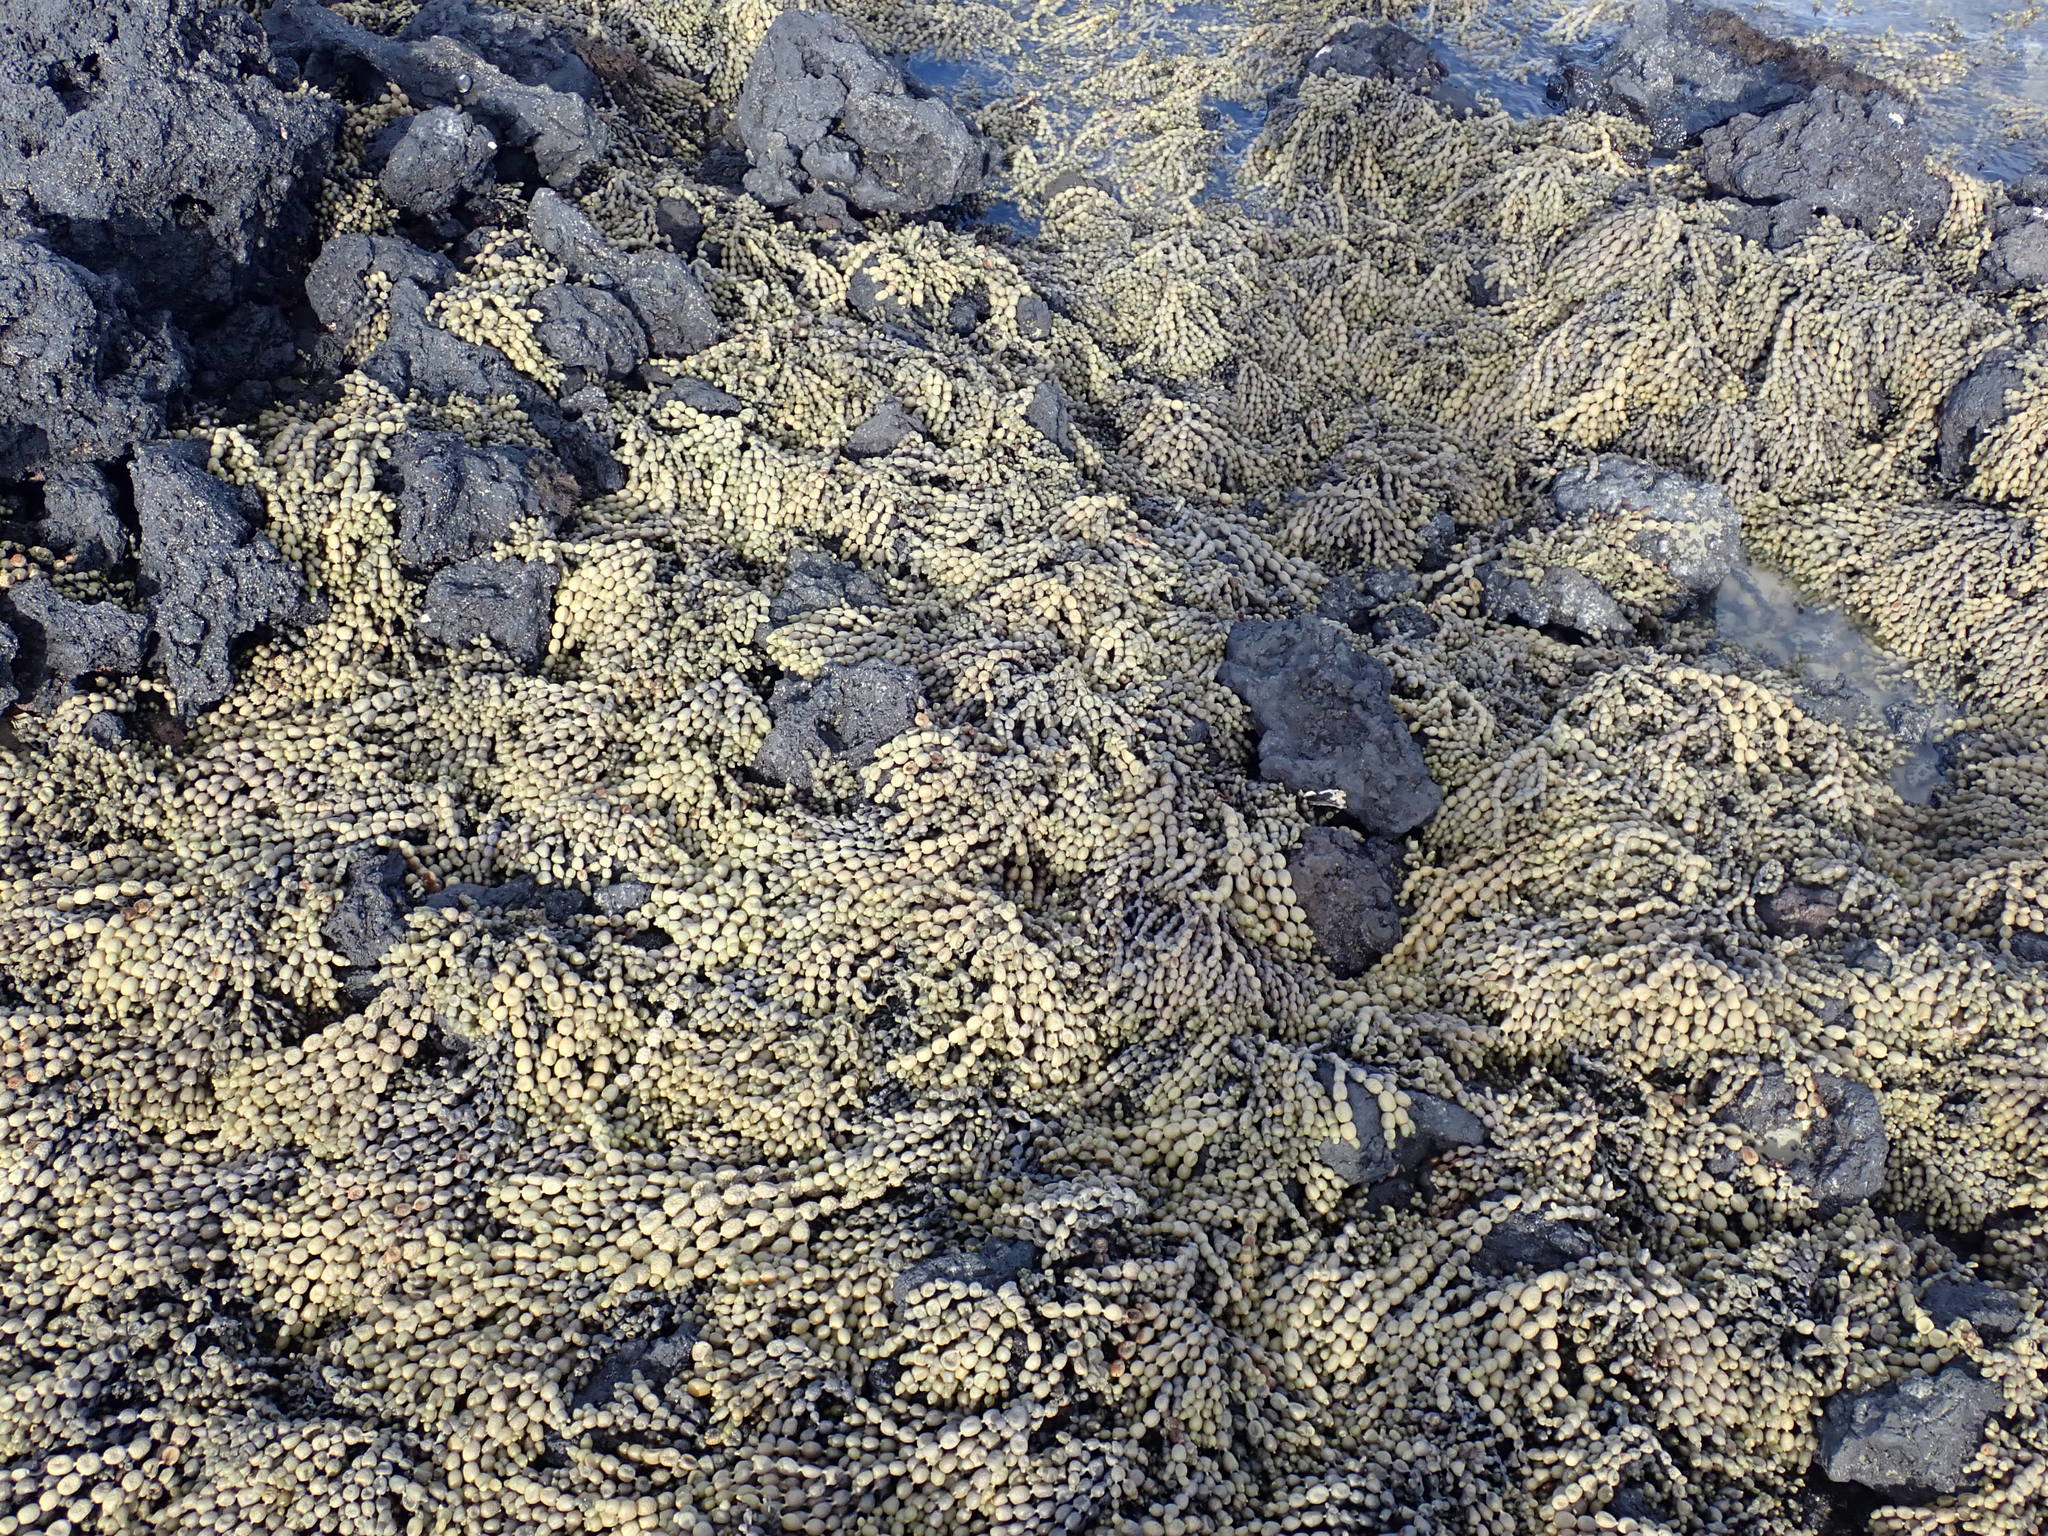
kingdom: Chromista
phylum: Ochrophyta
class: Phaeophyceae
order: Fucales
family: Hormosiraceae
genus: Hormosira
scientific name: Hormosira banksii
